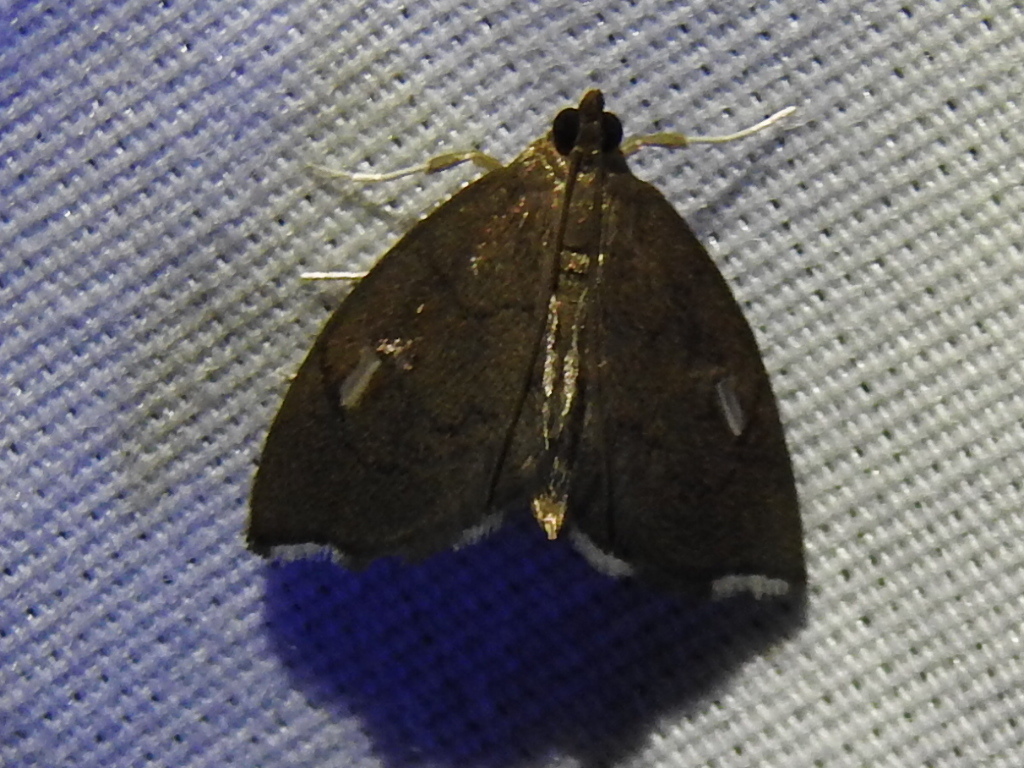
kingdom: Animalia
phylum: Arthropoda
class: Insecta
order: Lepidoptera
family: Crambidae
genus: Perispasta
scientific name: Perispasta caeculalis
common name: Titian peale's moth
